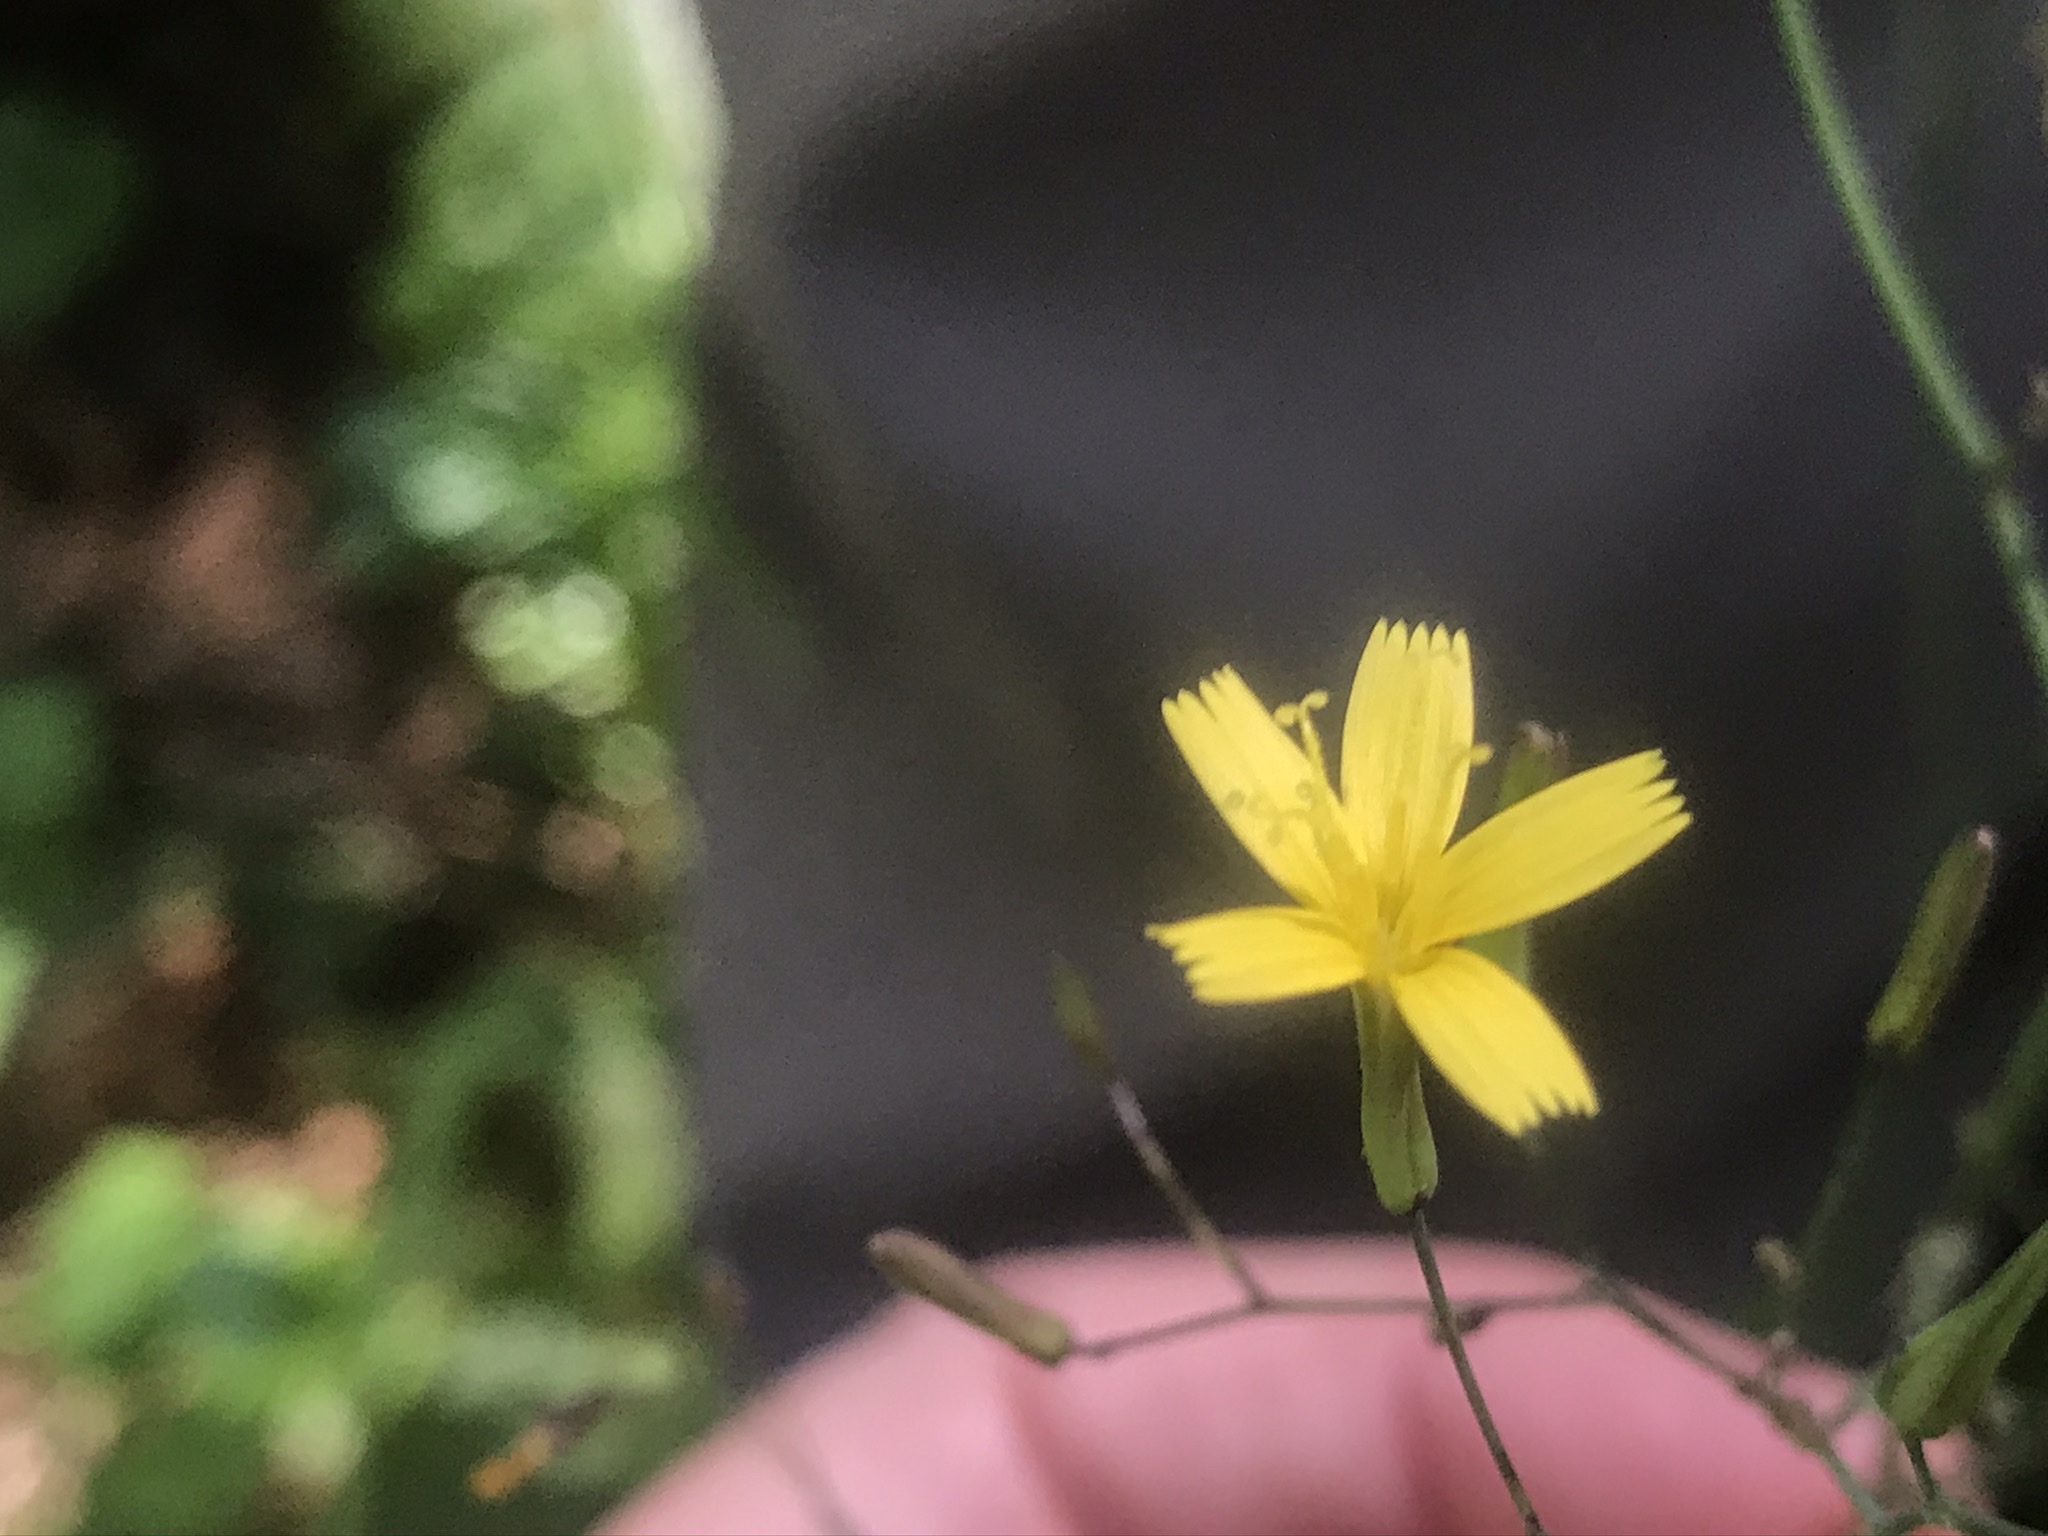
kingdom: Plantae
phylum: Tracheophyta
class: Magnoliopsida
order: Asterales
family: Asteraceae
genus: Mycelis
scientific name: Mycelis muralis
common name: Wall lettuce
